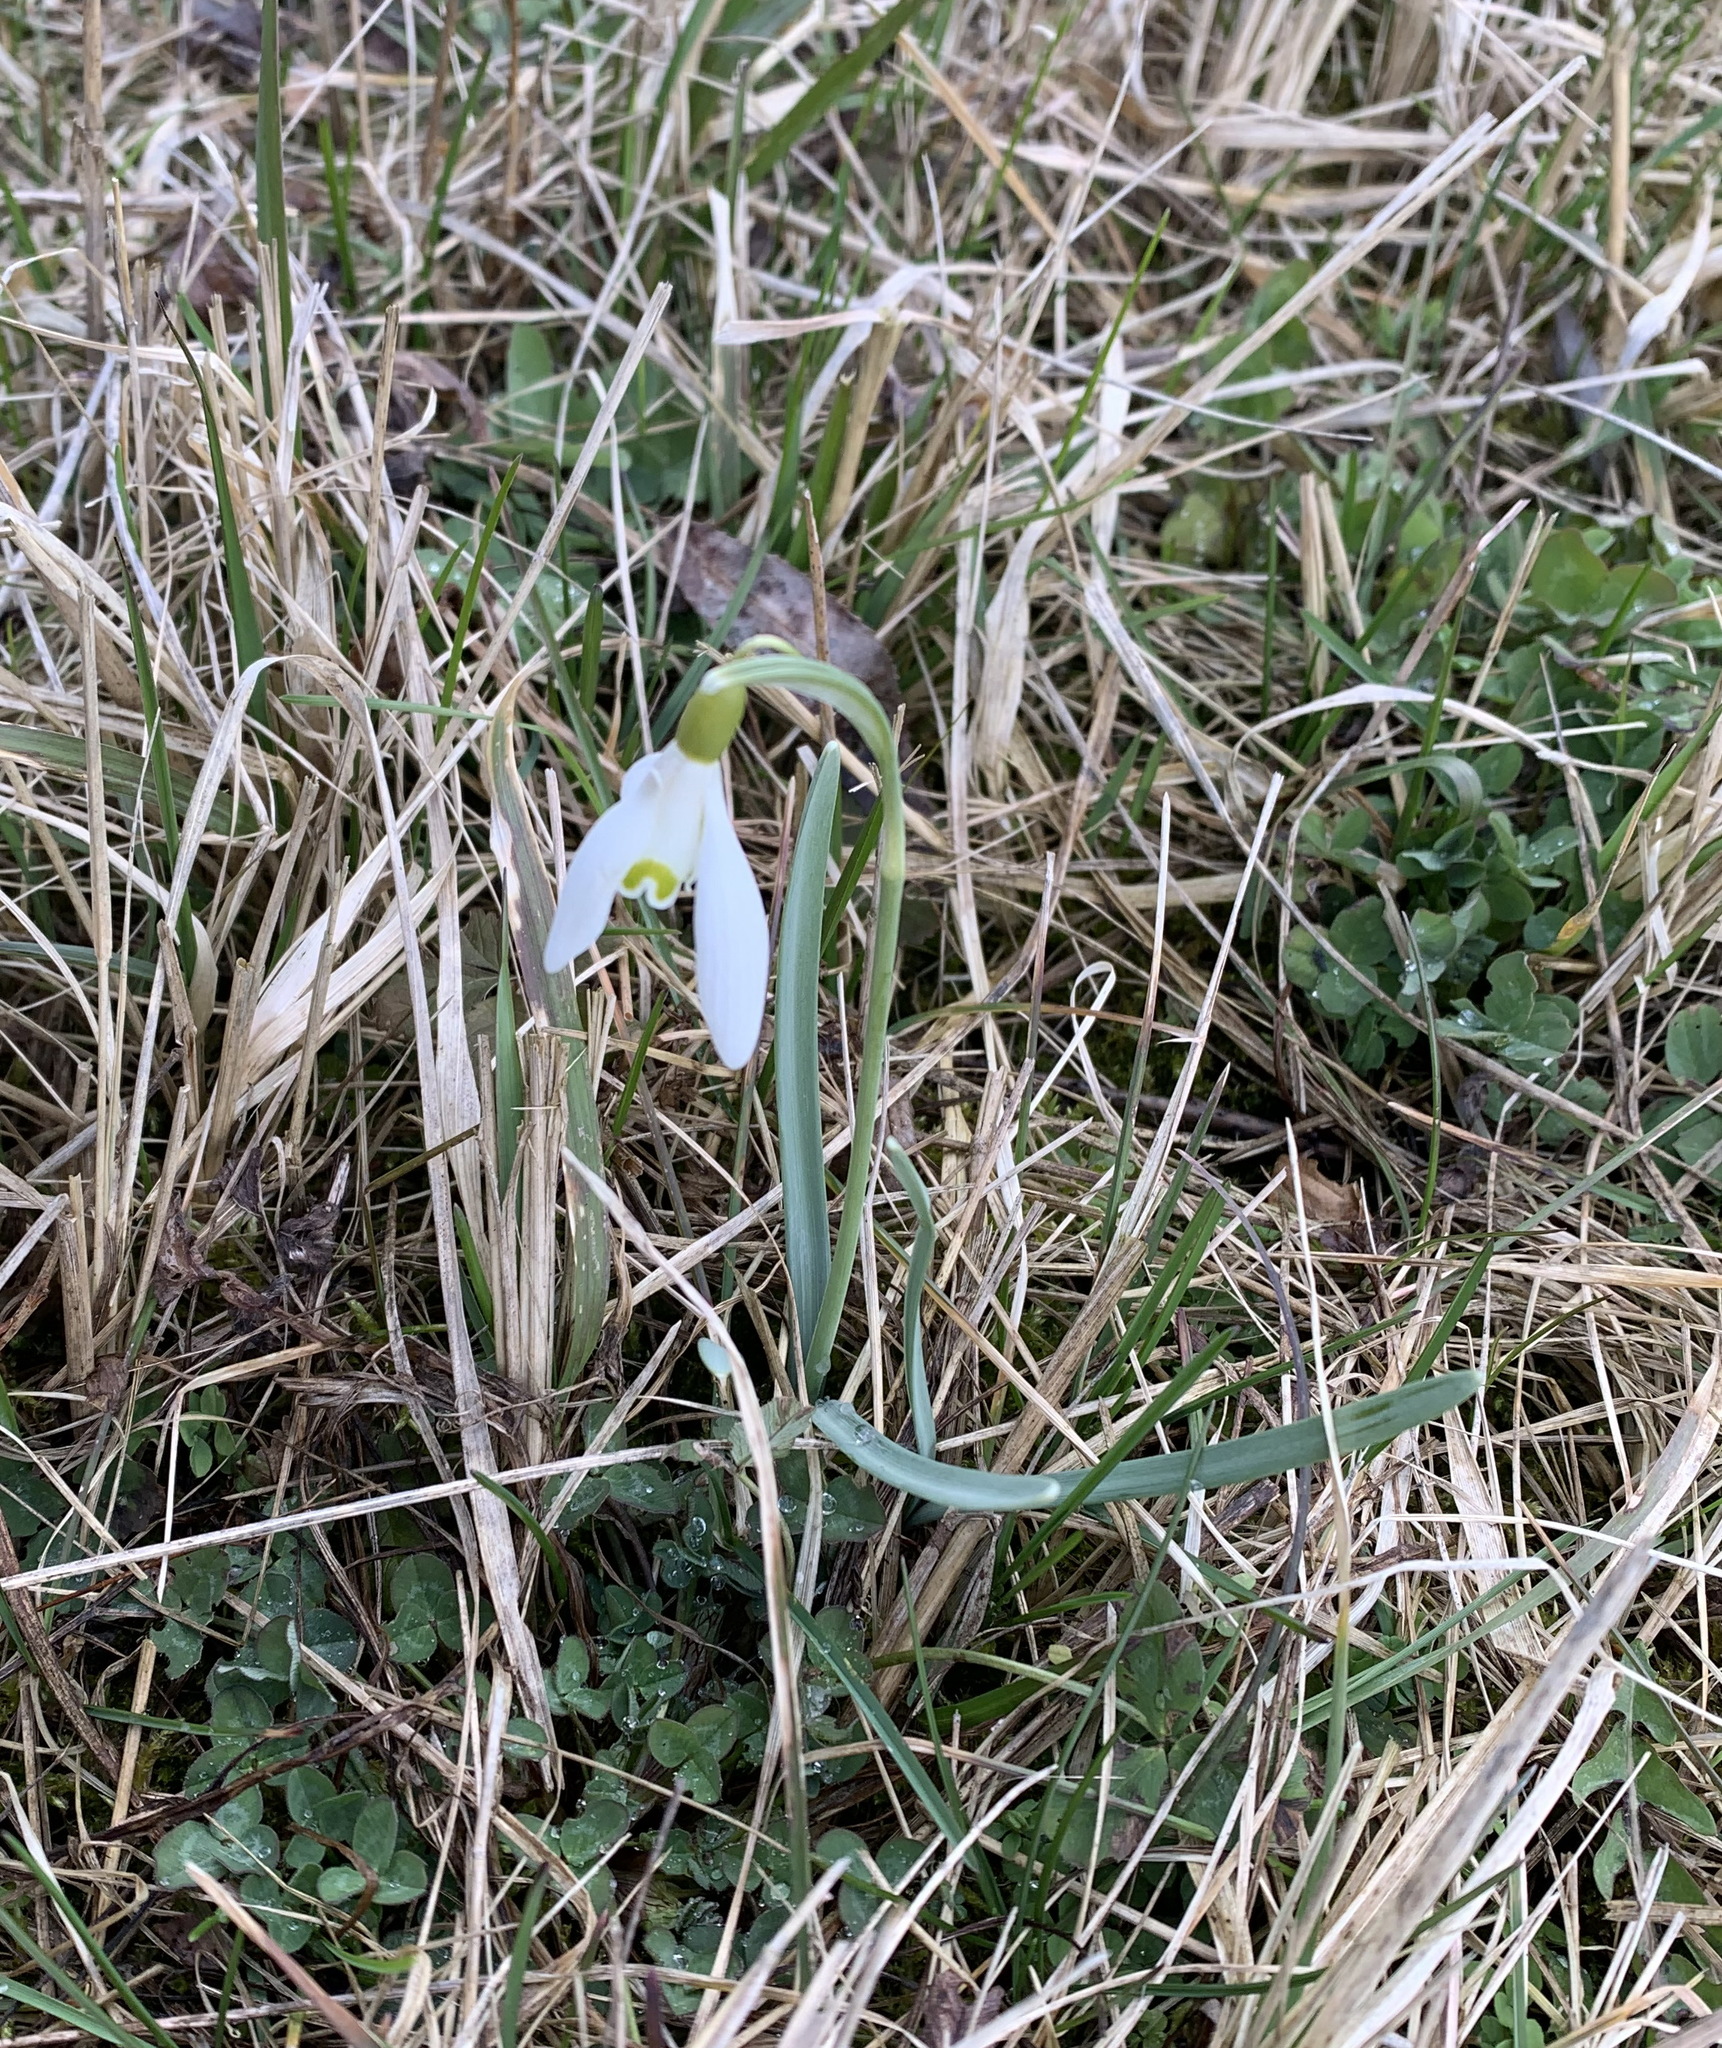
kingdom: Plantae
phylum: Tracheophyta
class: Liliopsida
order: Asparagales
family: Amaryllidaceae
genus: Galanthus
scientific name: Galanthus nivalis
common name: Snowdrop
